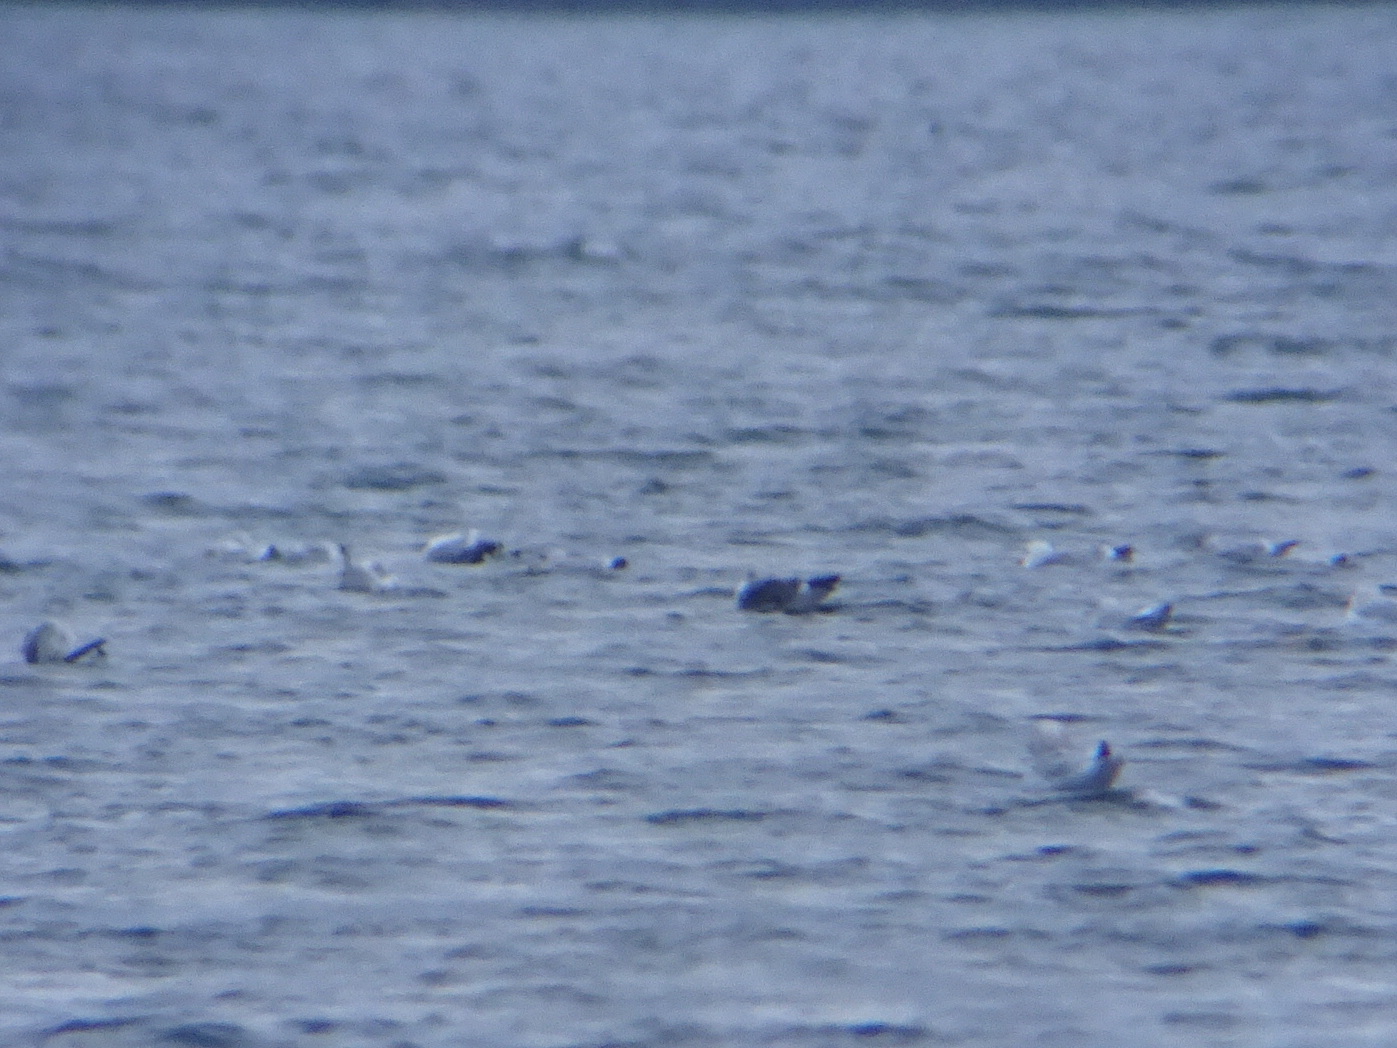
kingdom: Animalia
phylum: Chordata
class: Aves
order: Charadriiformes
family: Laridae
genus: Larus
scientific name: Larus fuscus
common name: Lesser black-backed gull
